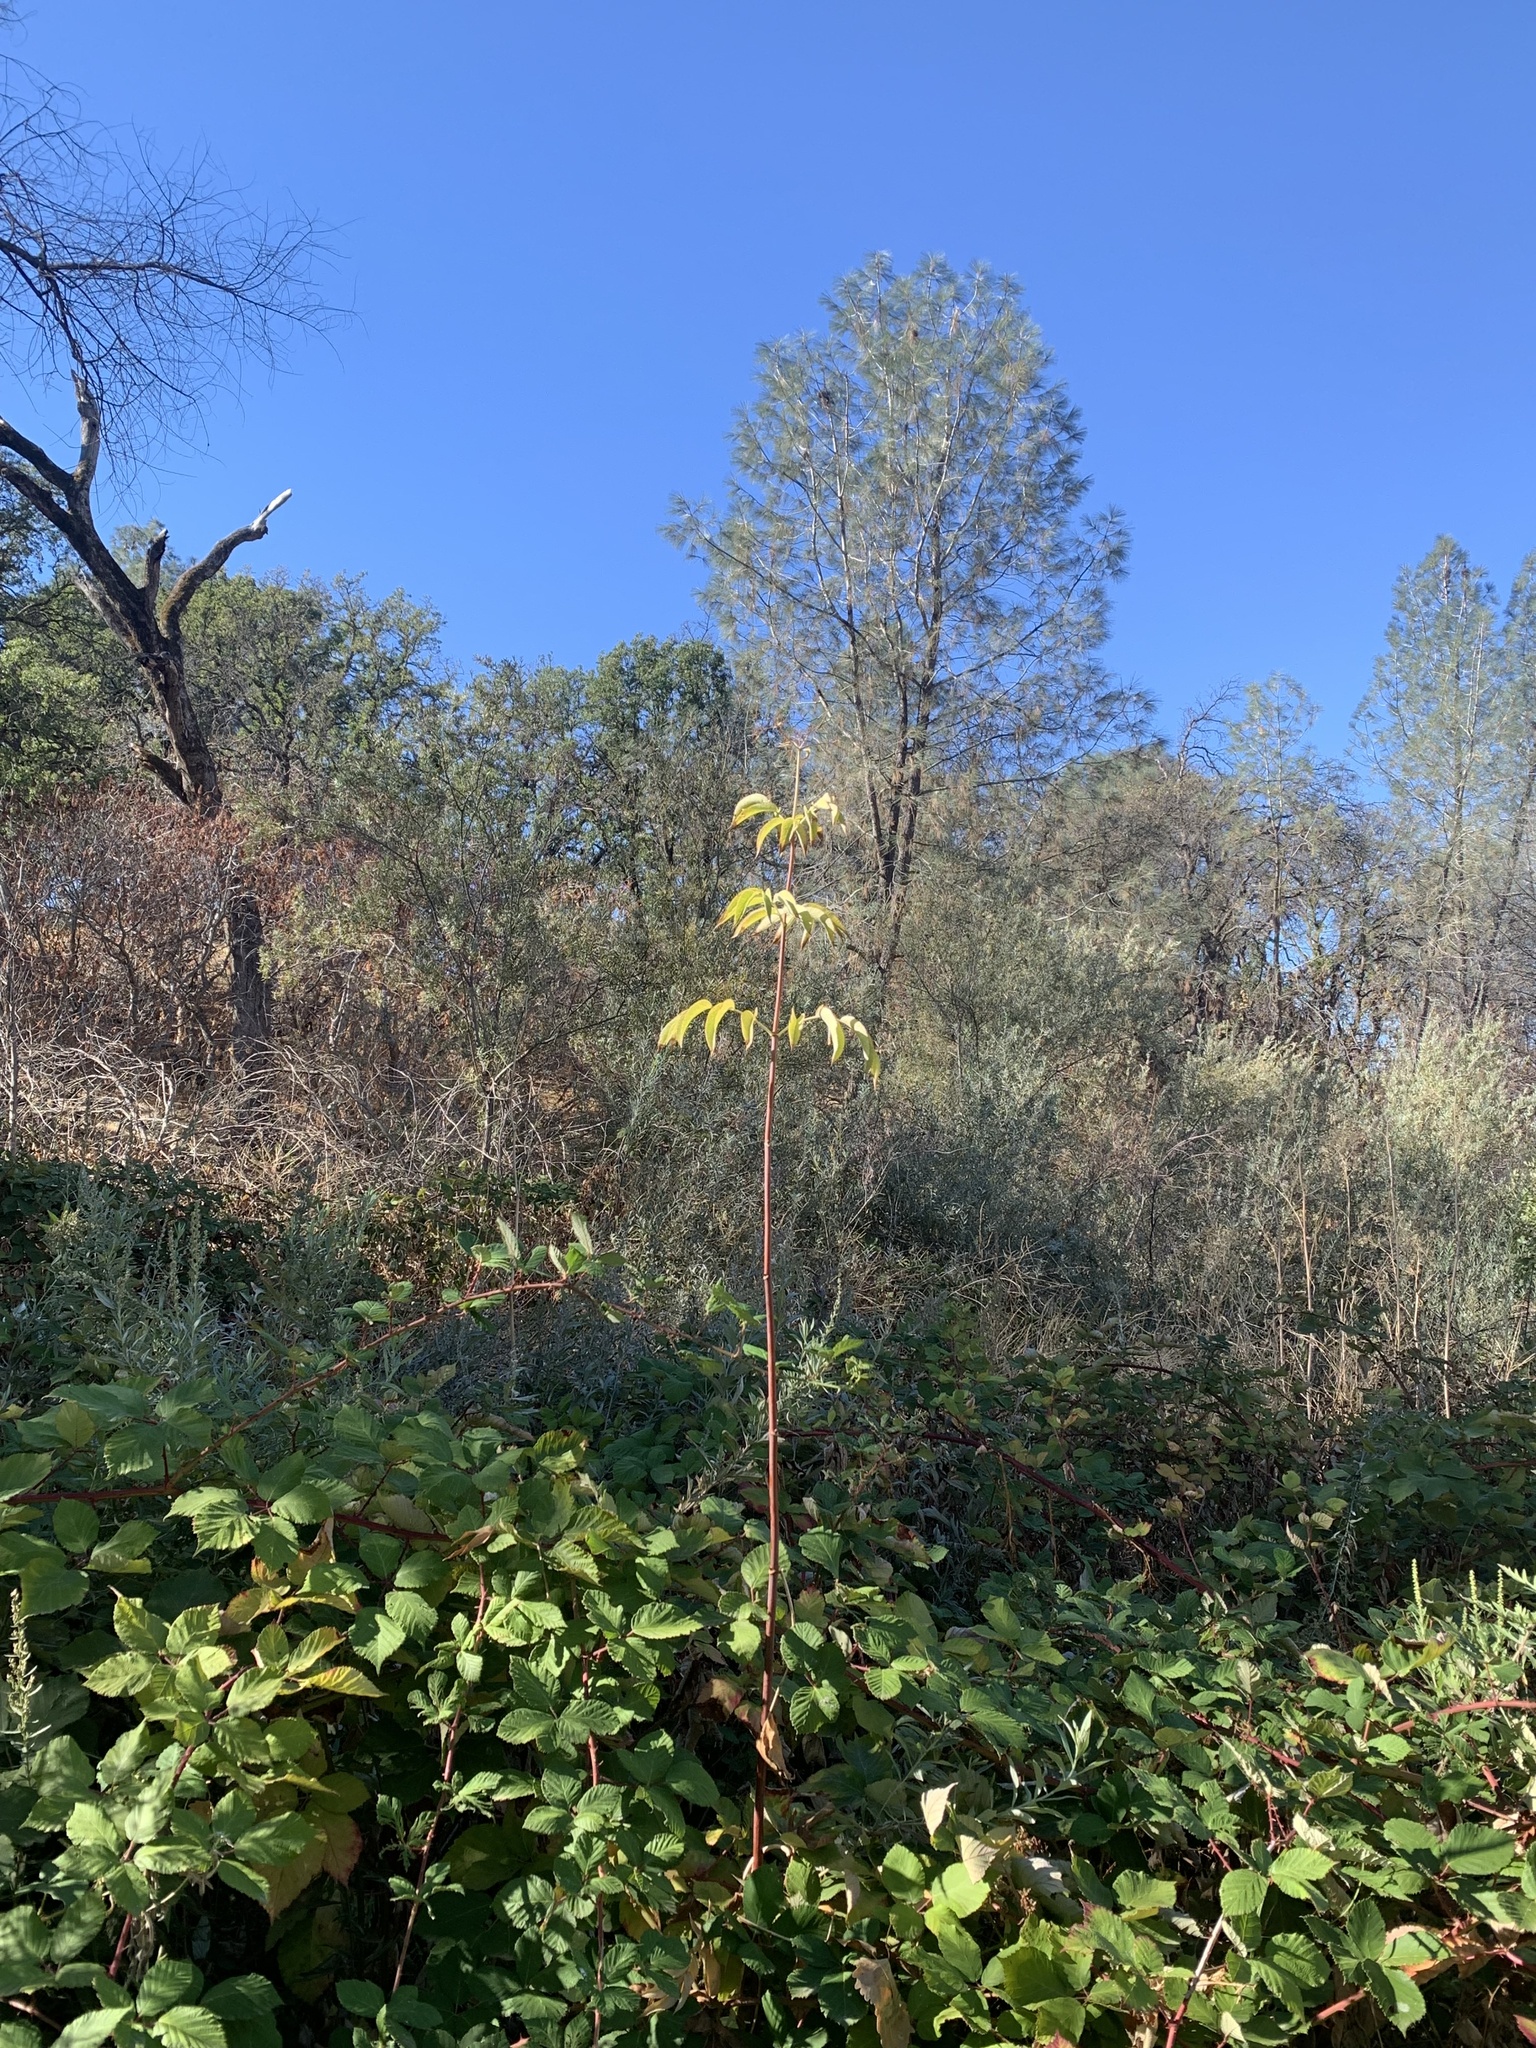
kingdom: Plantae
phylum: Tracheophyta
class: Magnoliopsida
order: Dipsacales
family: Viburnaceae
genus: Sambucus
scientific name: Sambucus cerulea
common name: Blue elder
